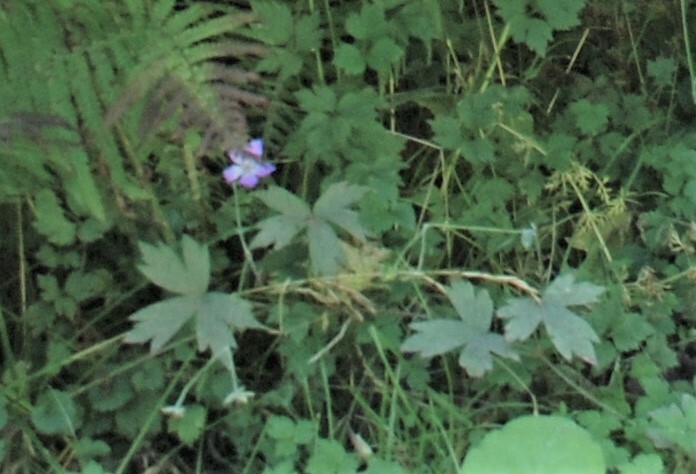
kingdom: Plantae
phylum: Tracheophyta
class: Magnoliopsida
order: Geraniales
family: Geraniaceae
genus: Geranium
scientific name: Geranium wlassovianum
